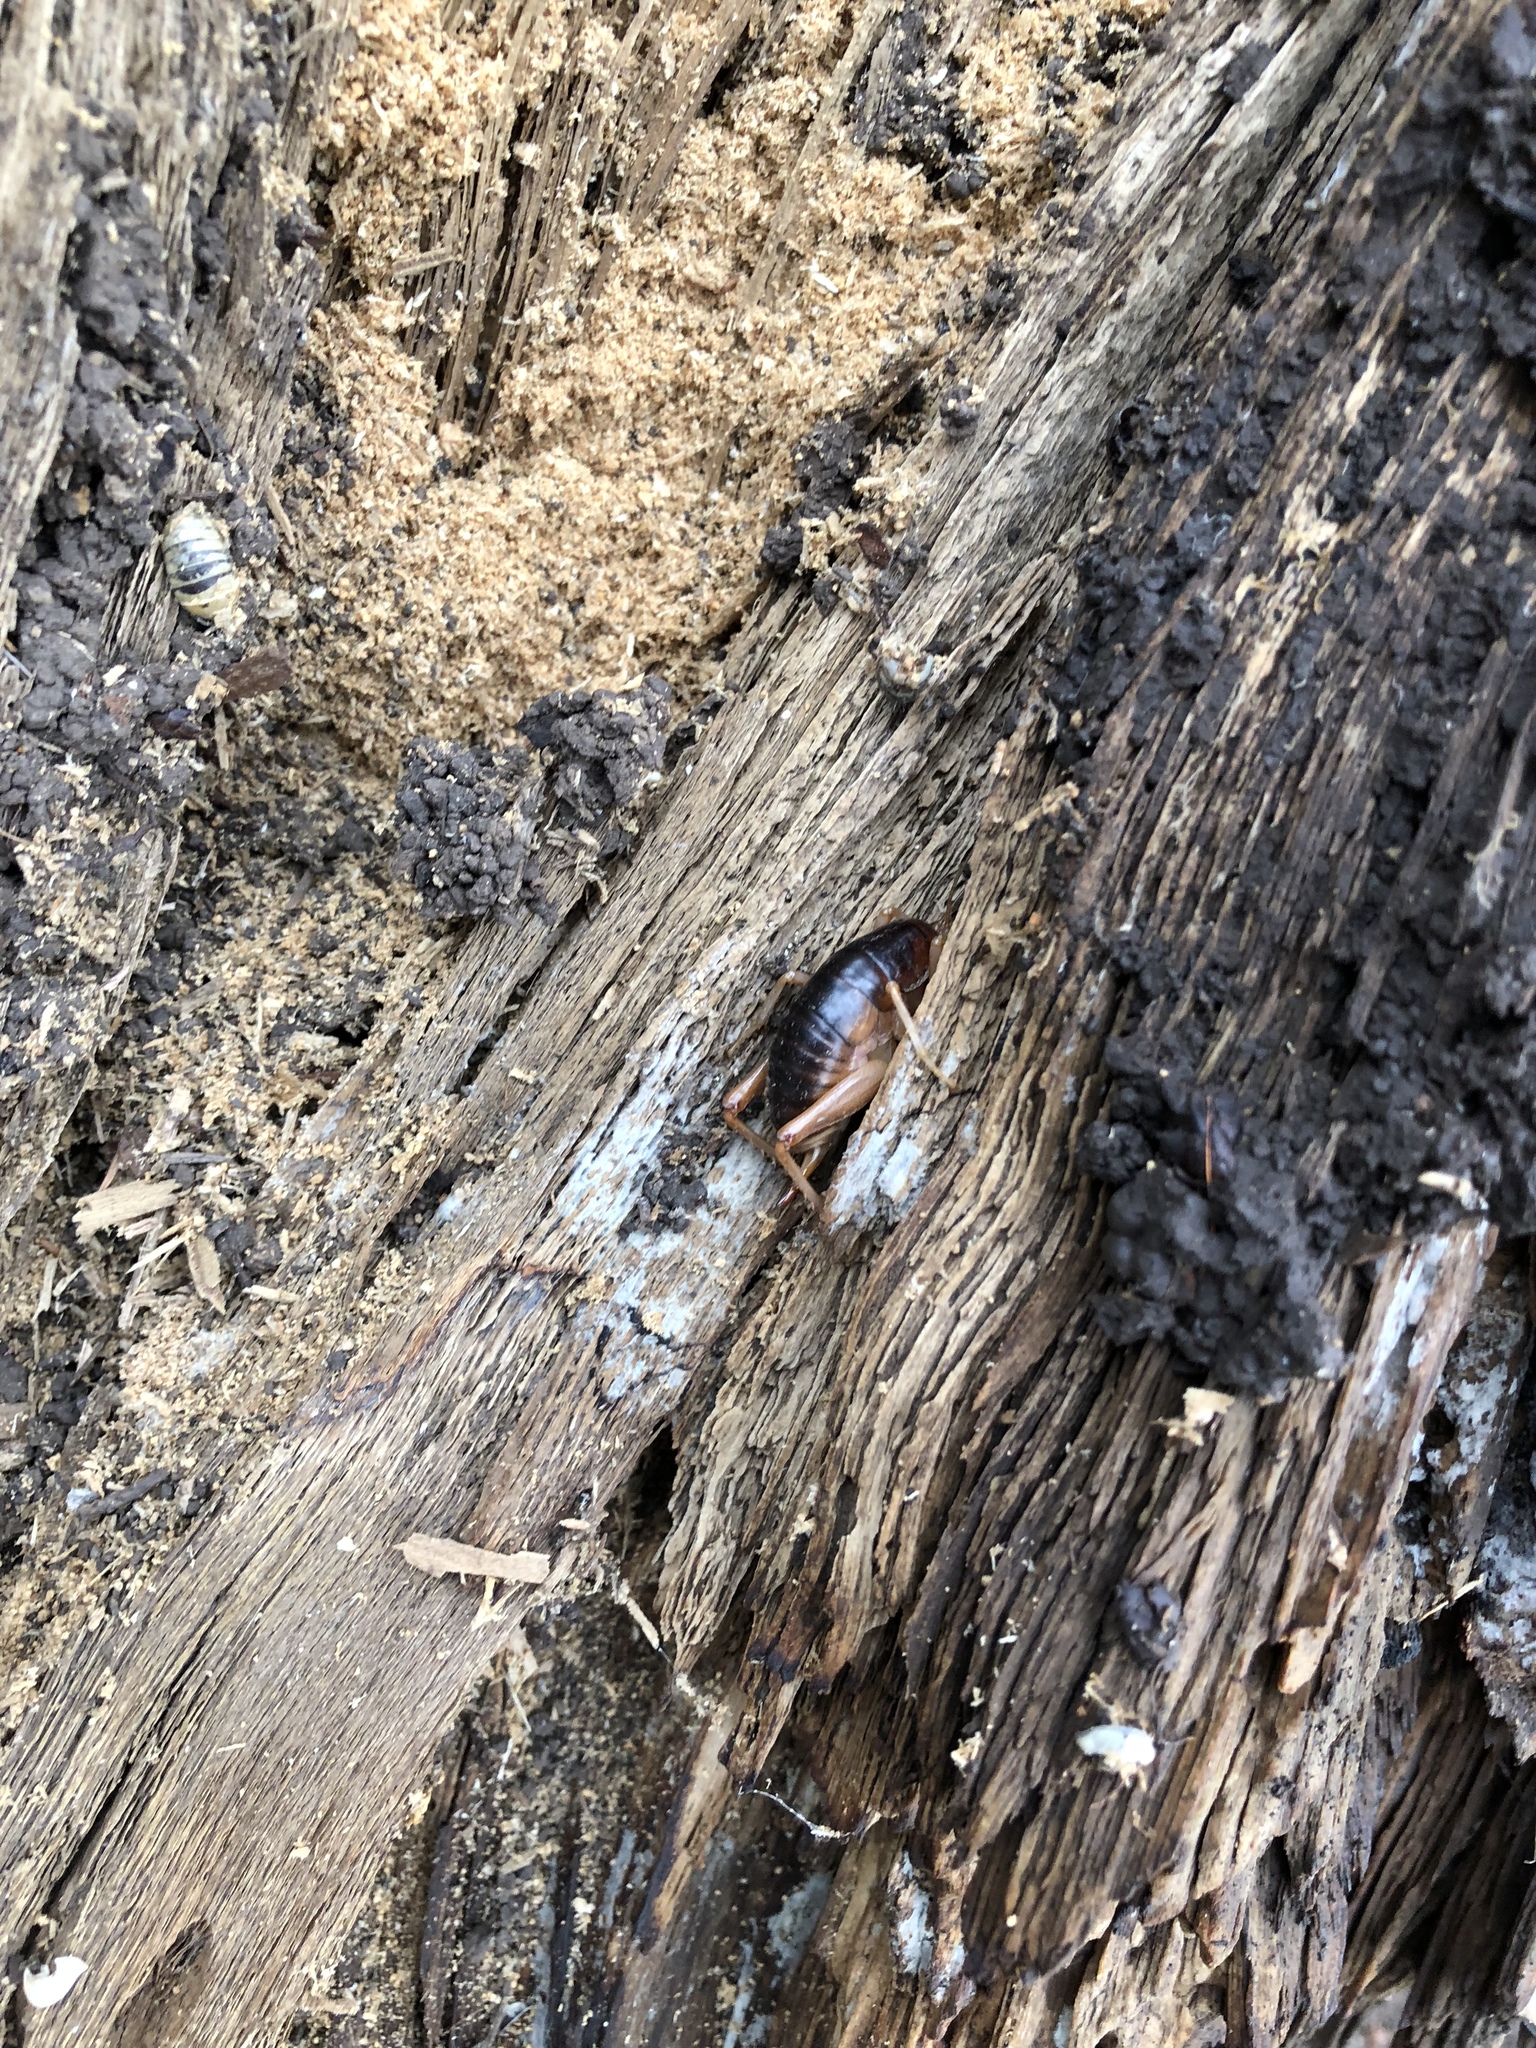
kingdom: Animalia
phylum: Arthropoda
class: Insecta
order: Orthoptera
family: Rhaphidophoridae
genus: Styracosceles
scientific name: Styracosceles neomexicanus
